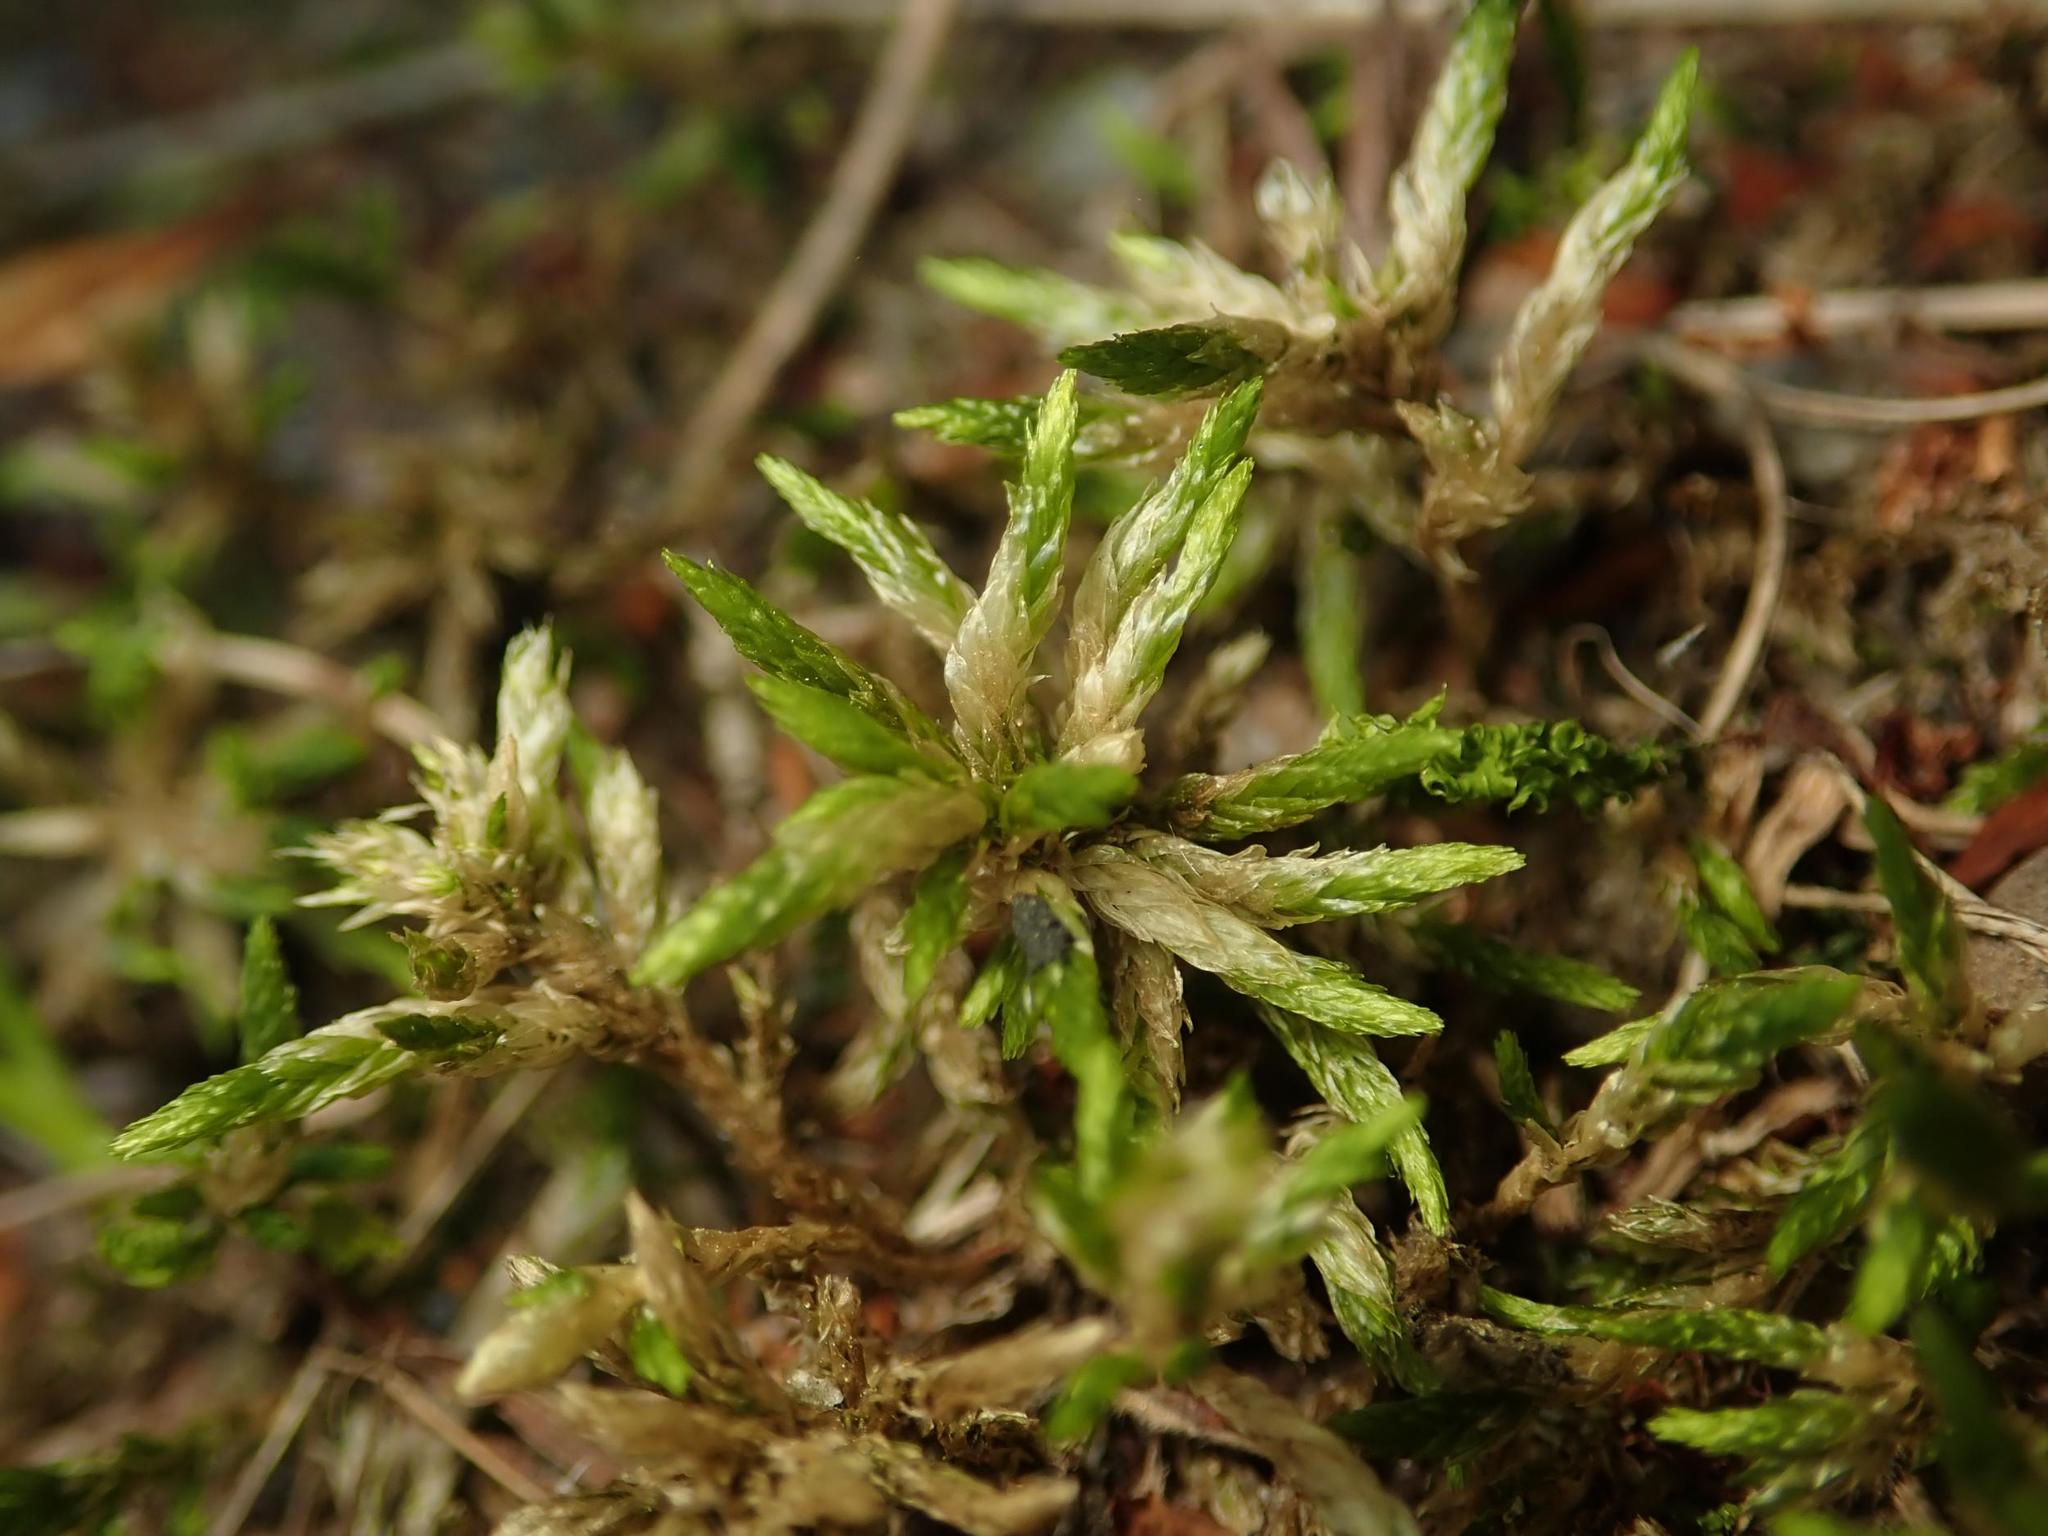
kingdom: Plantae
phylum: Bryophyta
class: Bryopsida
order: Hypnales
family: Climaciaceae
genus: Climacium
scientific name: Climacium dendroides
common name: Northern tree moss
